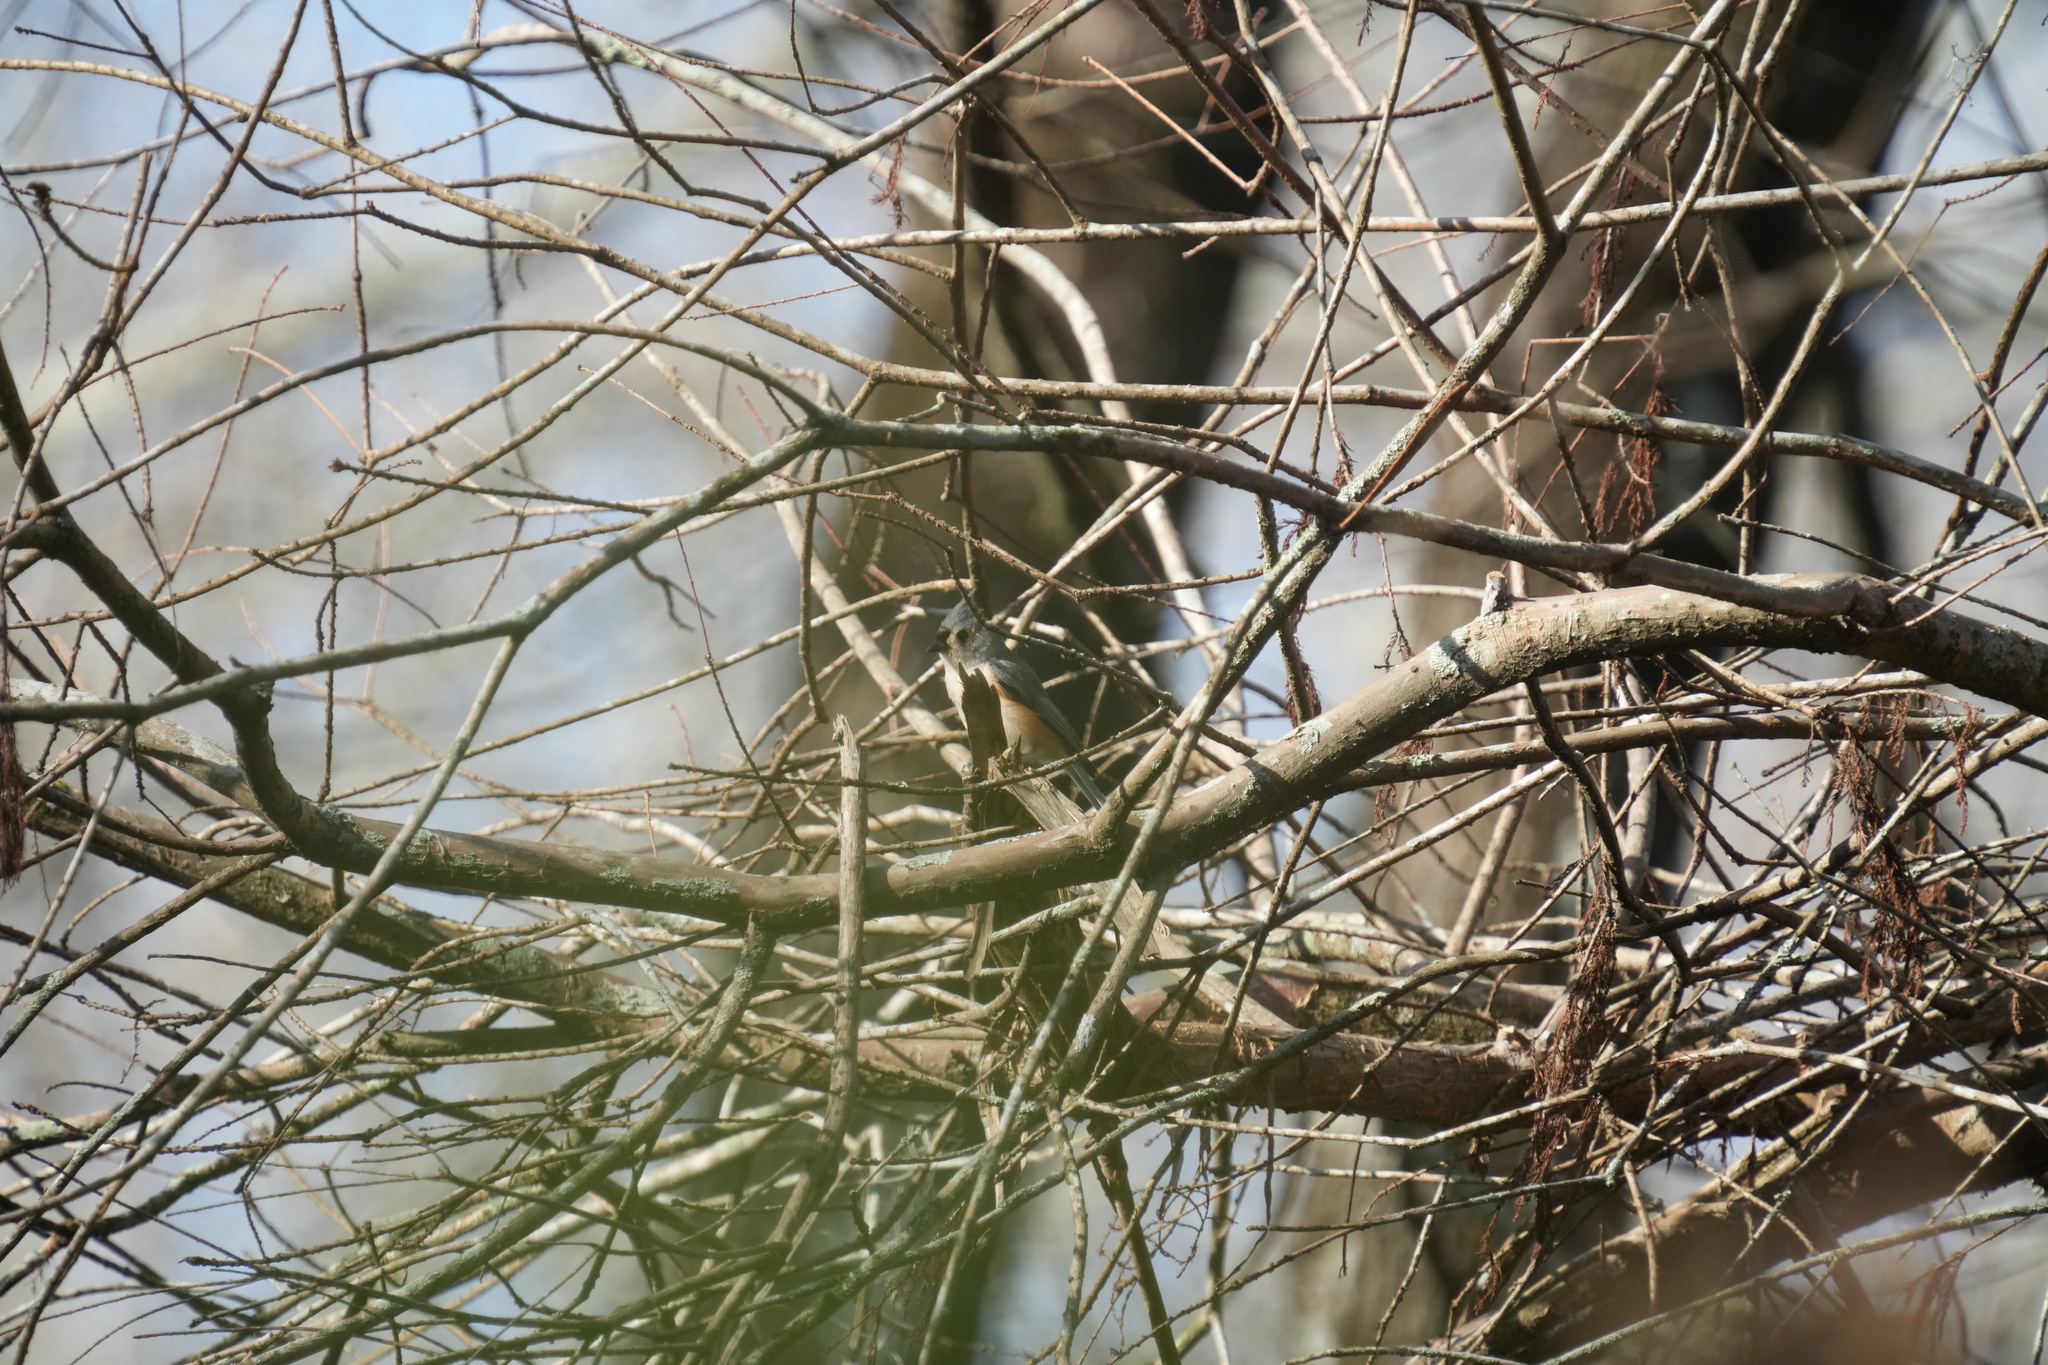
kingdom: Animalia
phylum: Chordata
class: Aves
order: Passeriformes
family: Paridae
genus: Baeolophus
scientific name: Baeolophus bicolor
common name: Tufted titmouse
